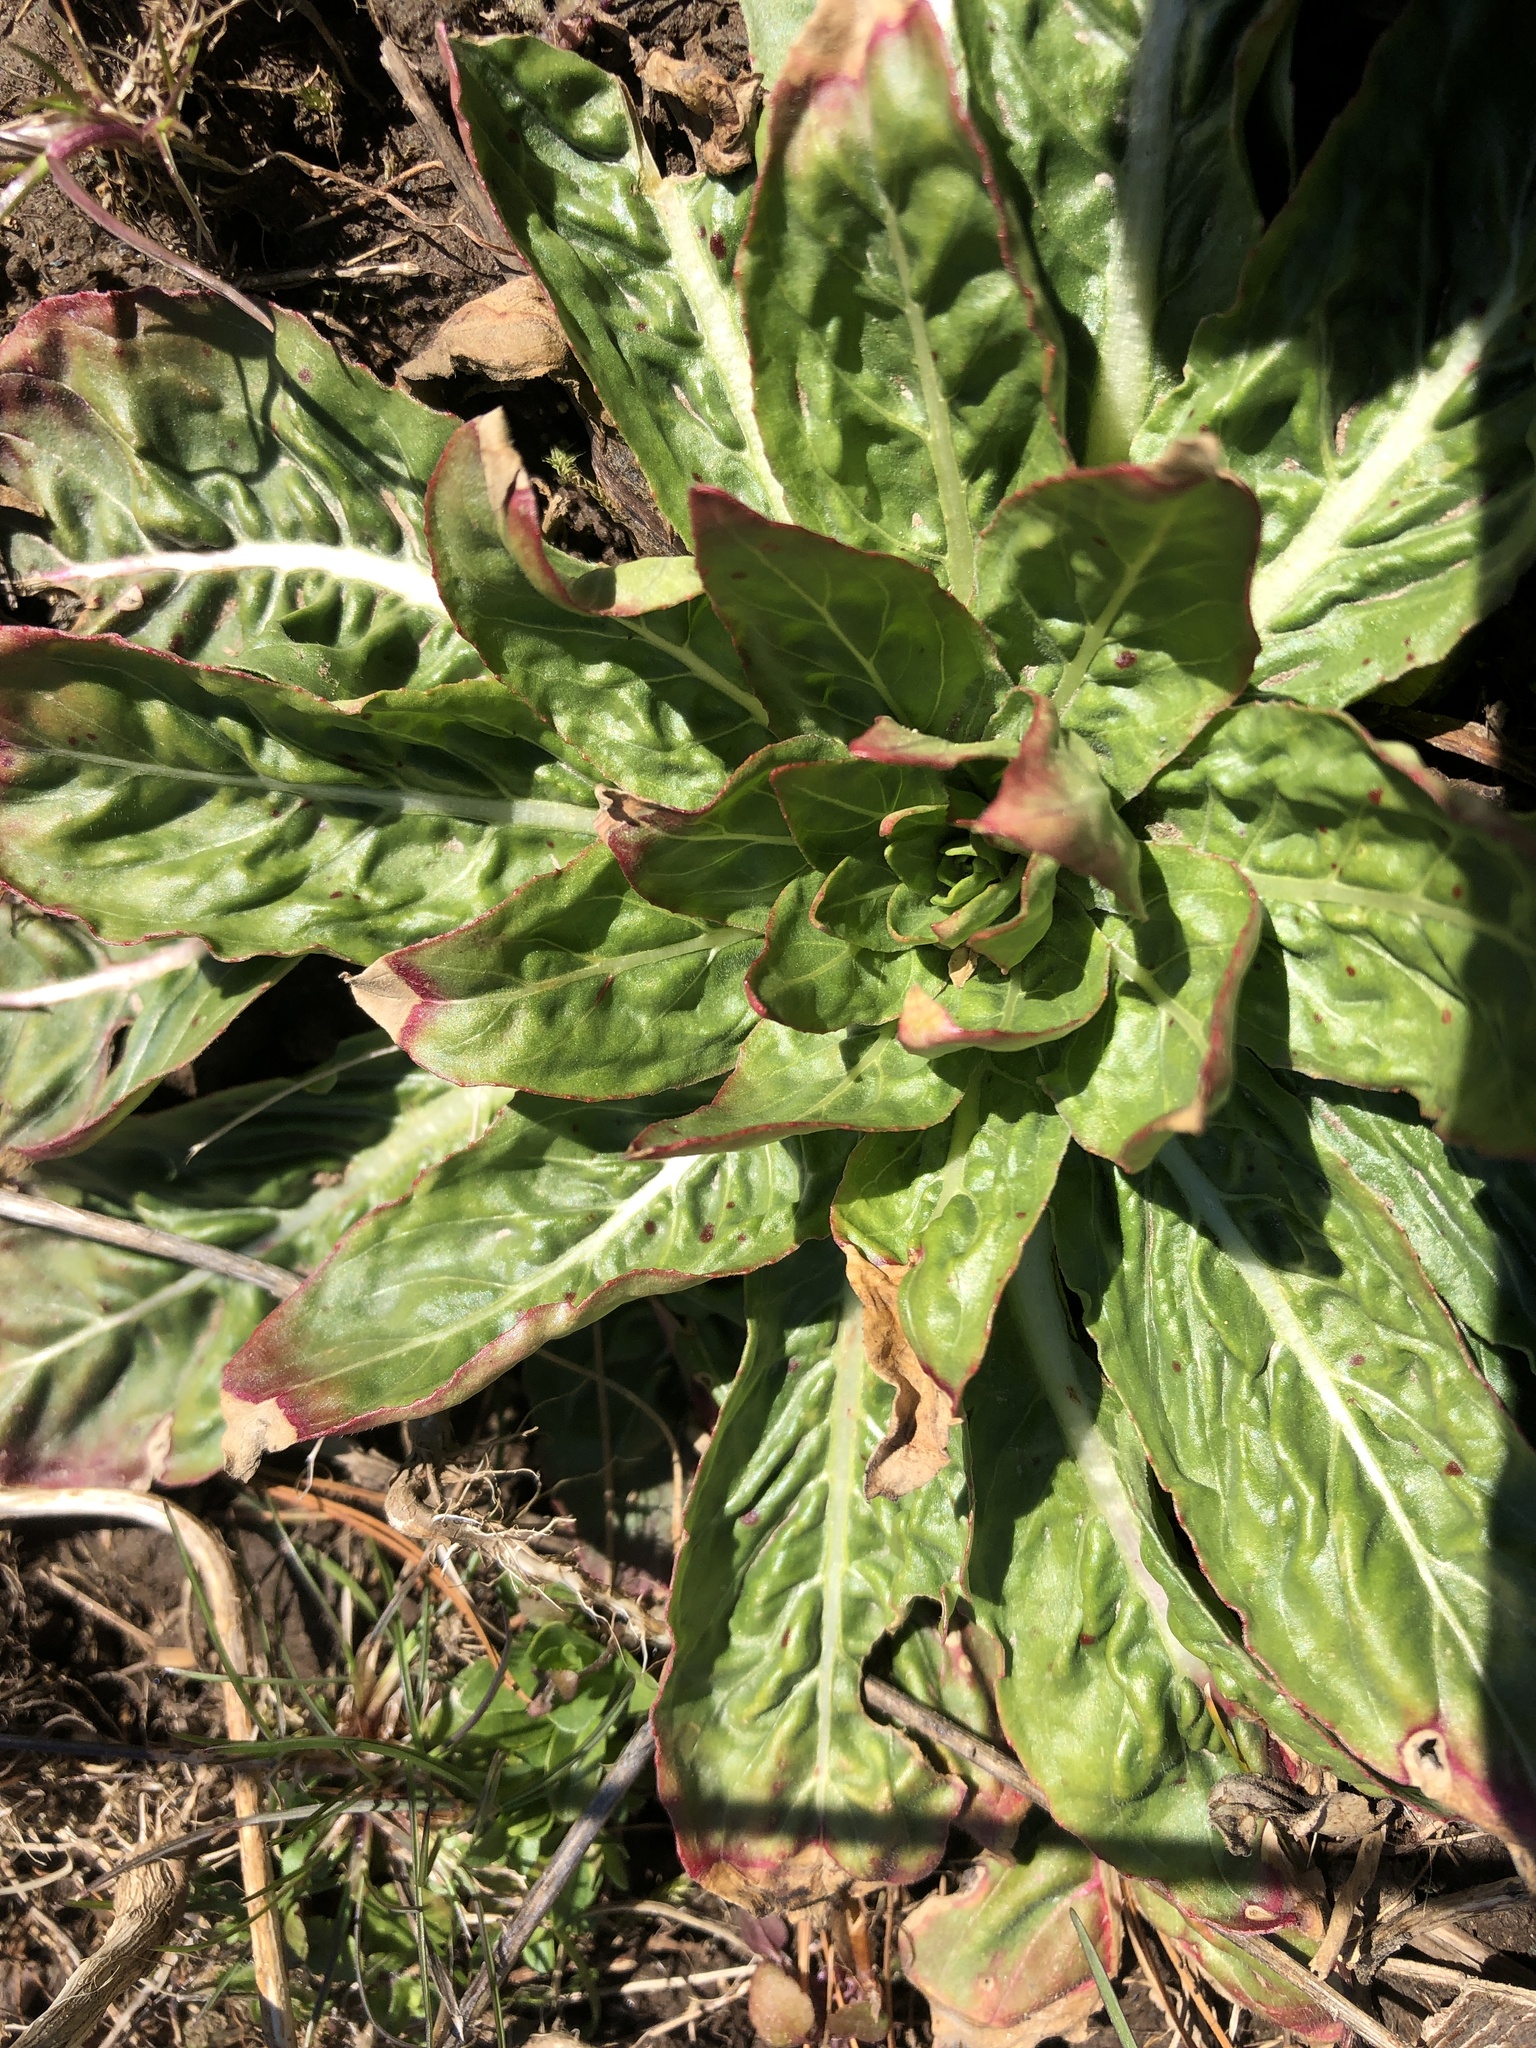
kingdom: Plantae
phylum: Tracheophyta
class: Magnoliopsida
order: Myrtales
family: Onagraceae
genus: Oenothera
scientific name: Oenothera biennis
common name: Common evening-primrose
